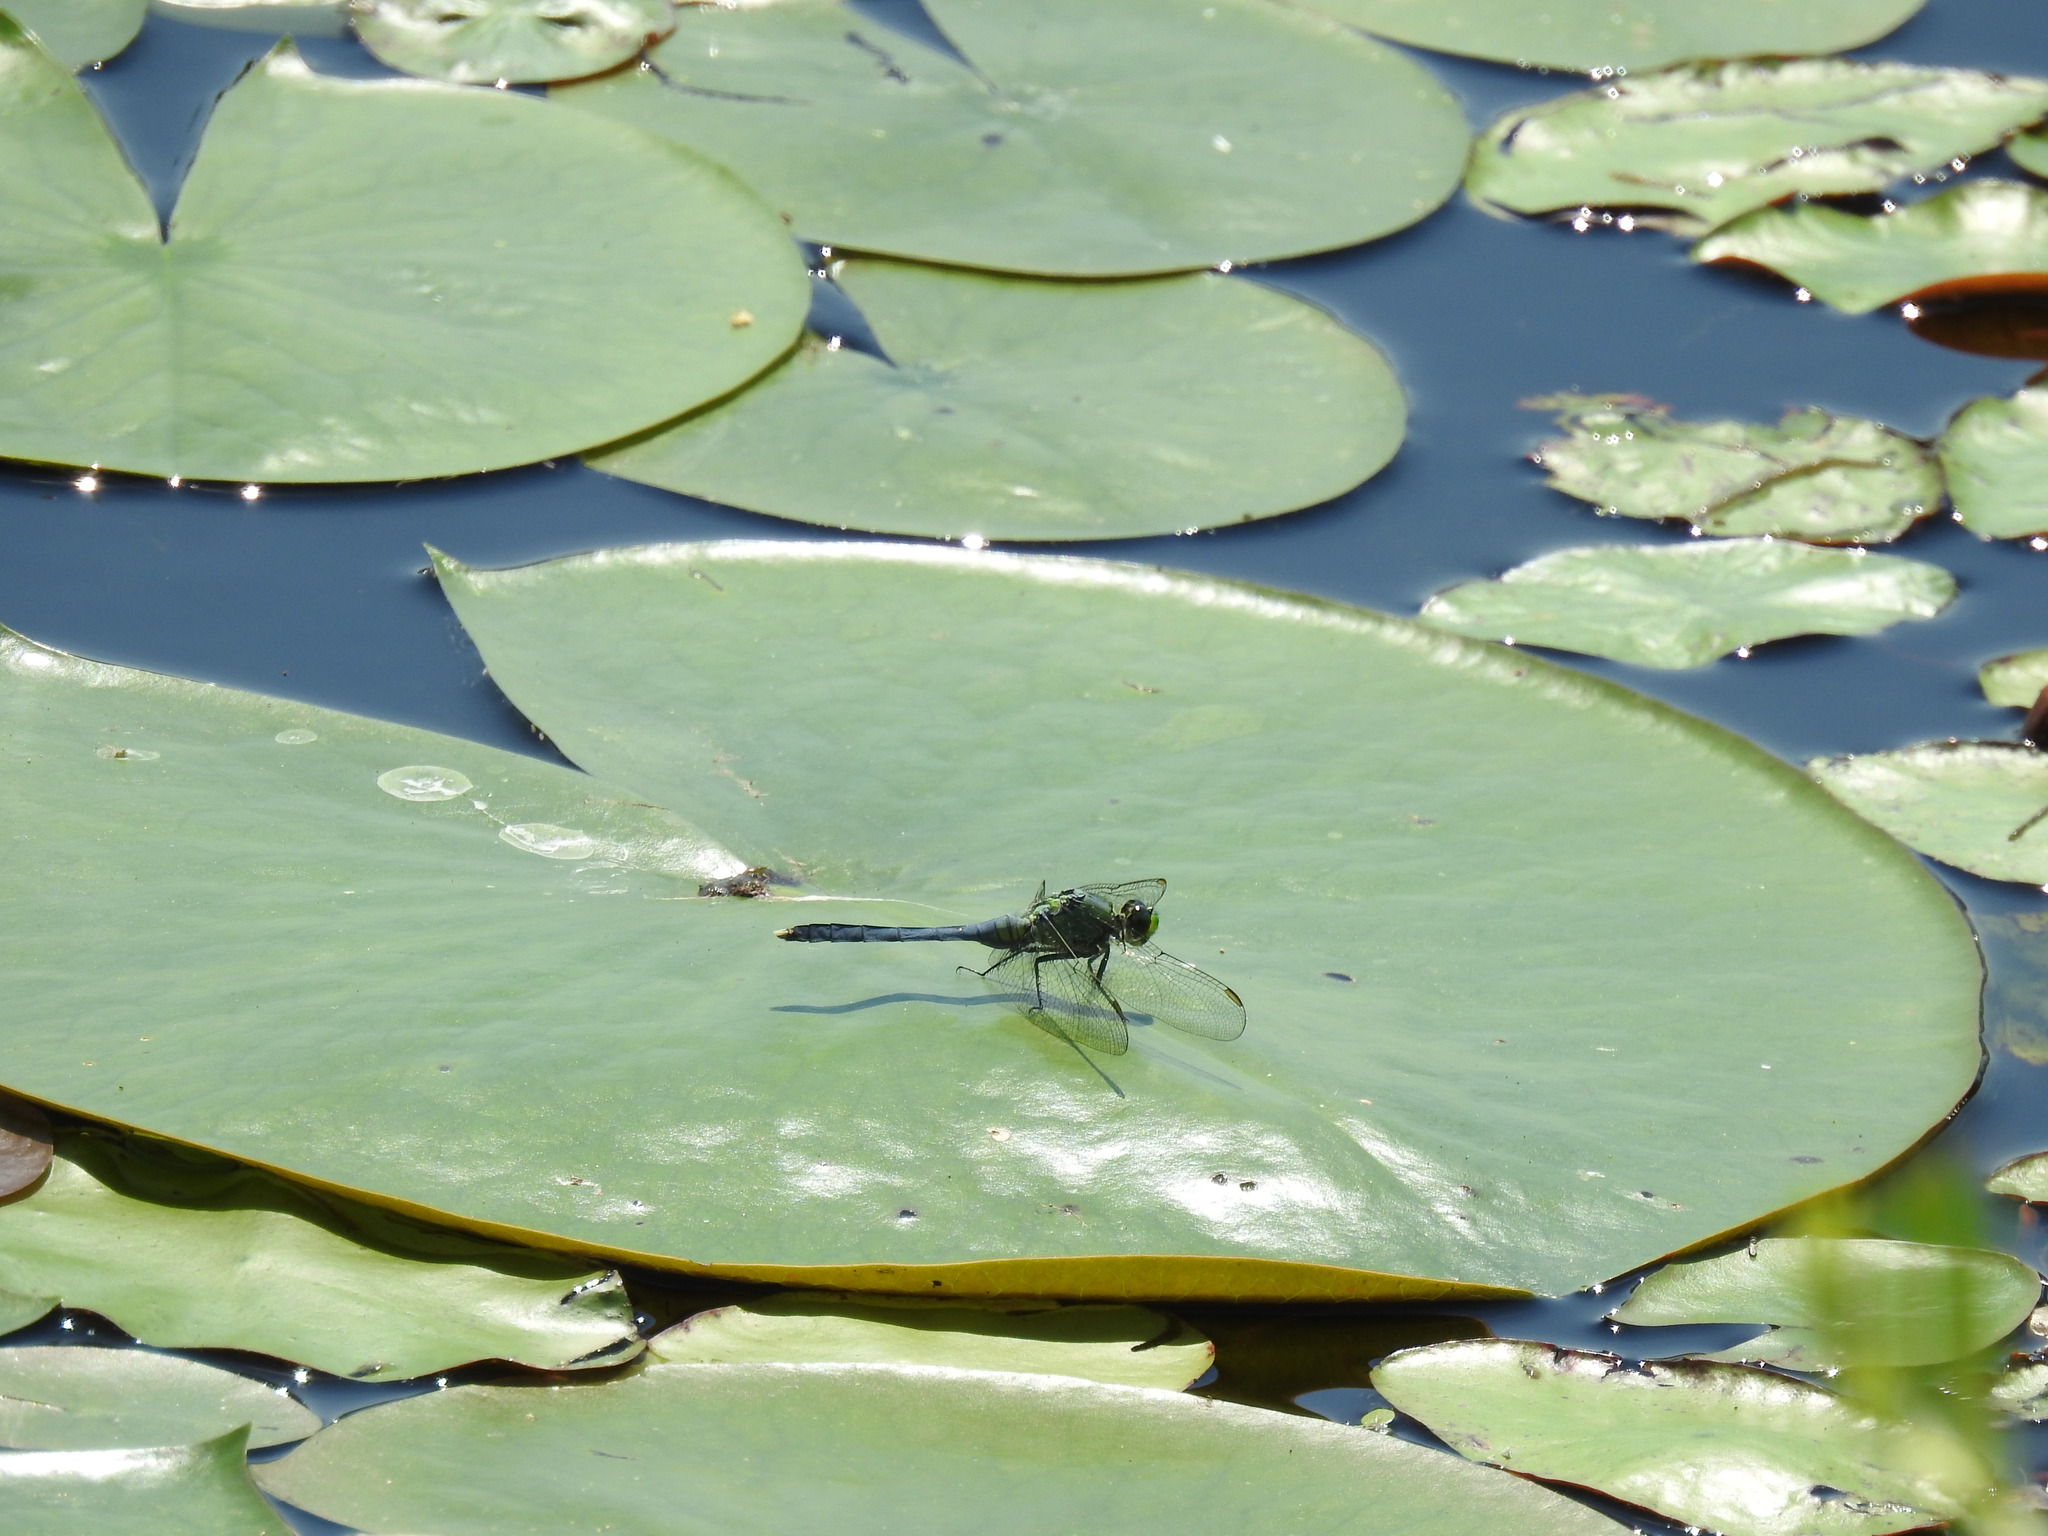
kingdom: Animalia
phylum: Arthropoda
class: Insecta
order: Odonata
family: Libellulidae
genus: Erythemis
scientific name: Erythemis simplicicollis
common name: Eastern pondhawk
